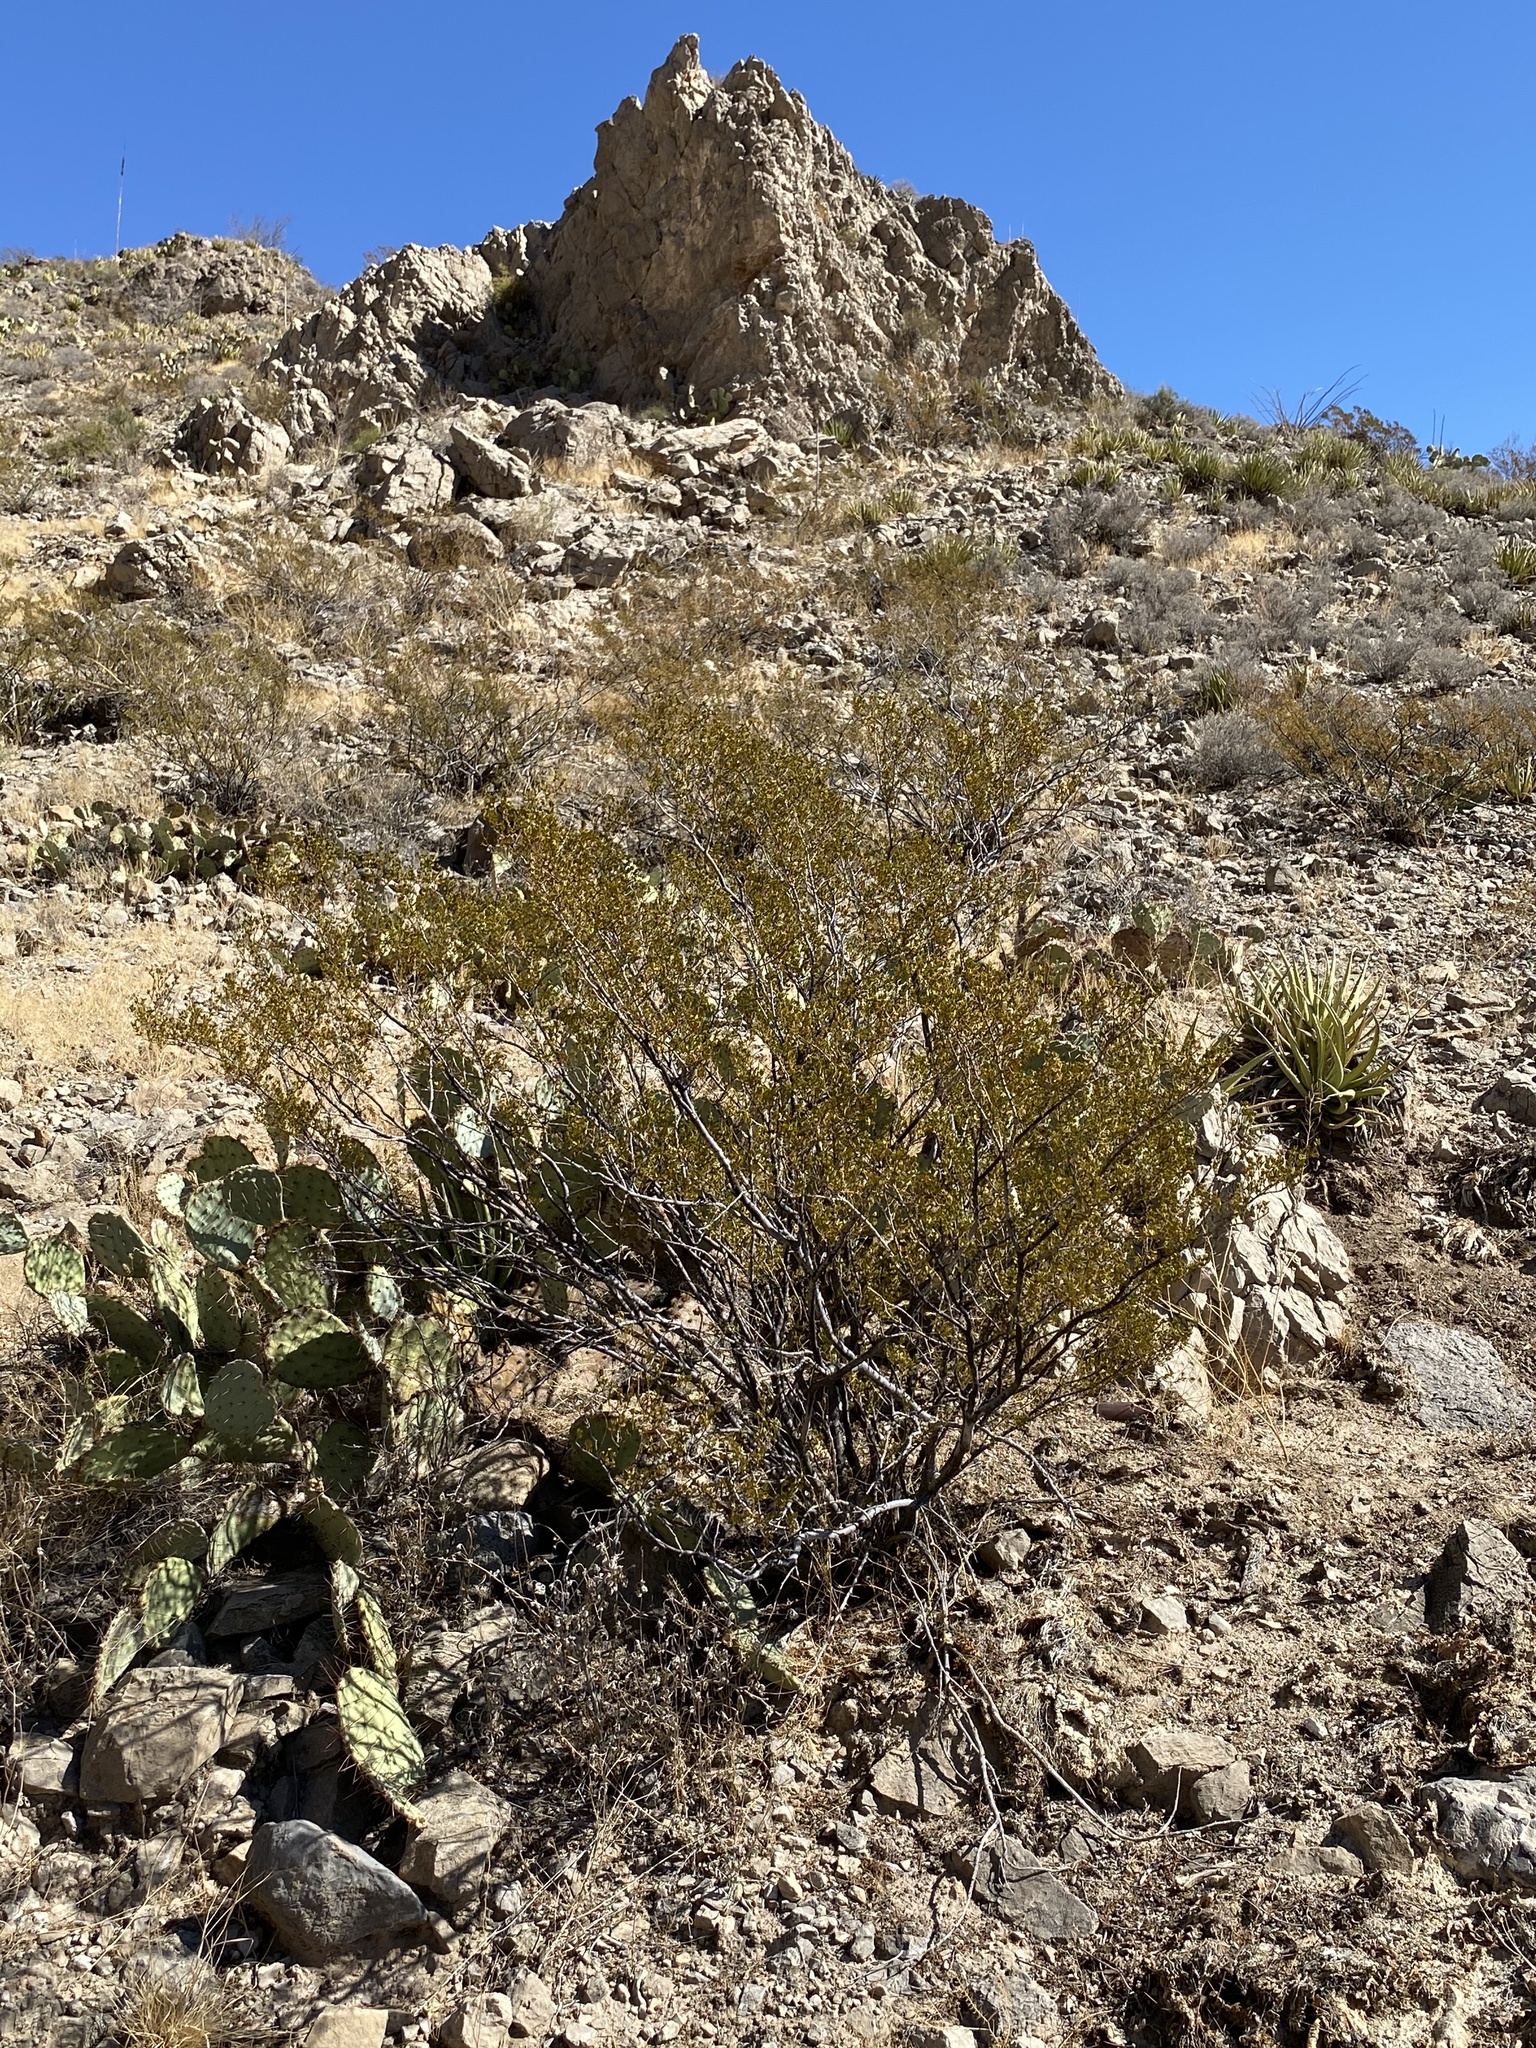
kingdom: Plantae
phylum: Tracheophyta
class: Magnoliopsida
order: Zygophyllales
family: Zygophyllaceae
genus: Larrea
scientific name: Larrea tridentata
